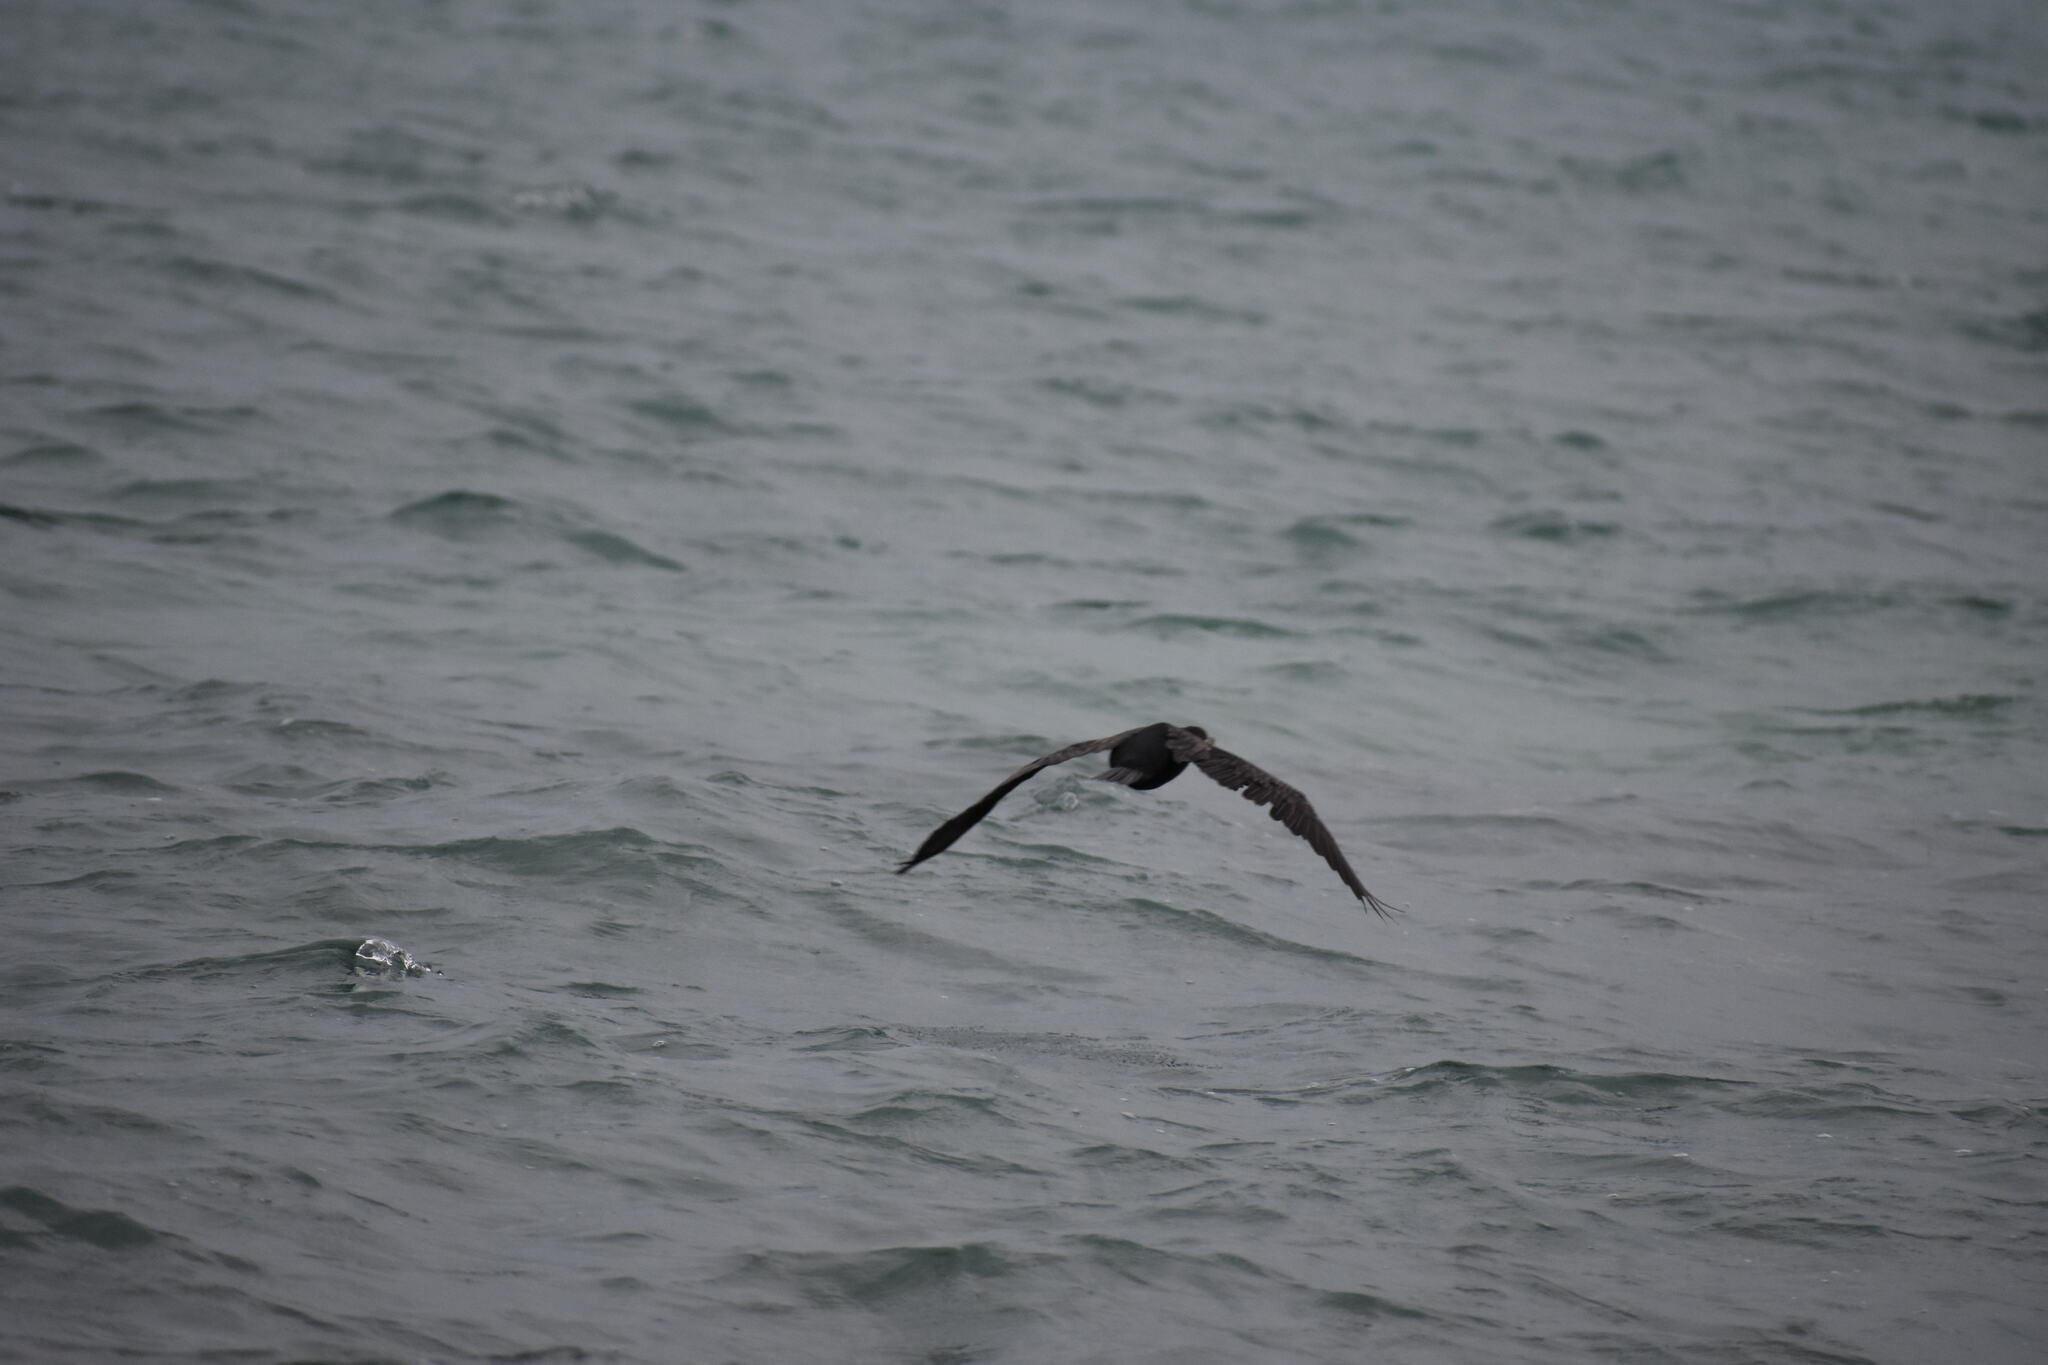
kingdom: Animalia
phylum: Chordata
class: Aves
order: Suliformes
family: Phalacrocoracidae
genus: Phalacrocorax
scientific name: Phalacrocorax auritus
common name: Double-crested cormorant
